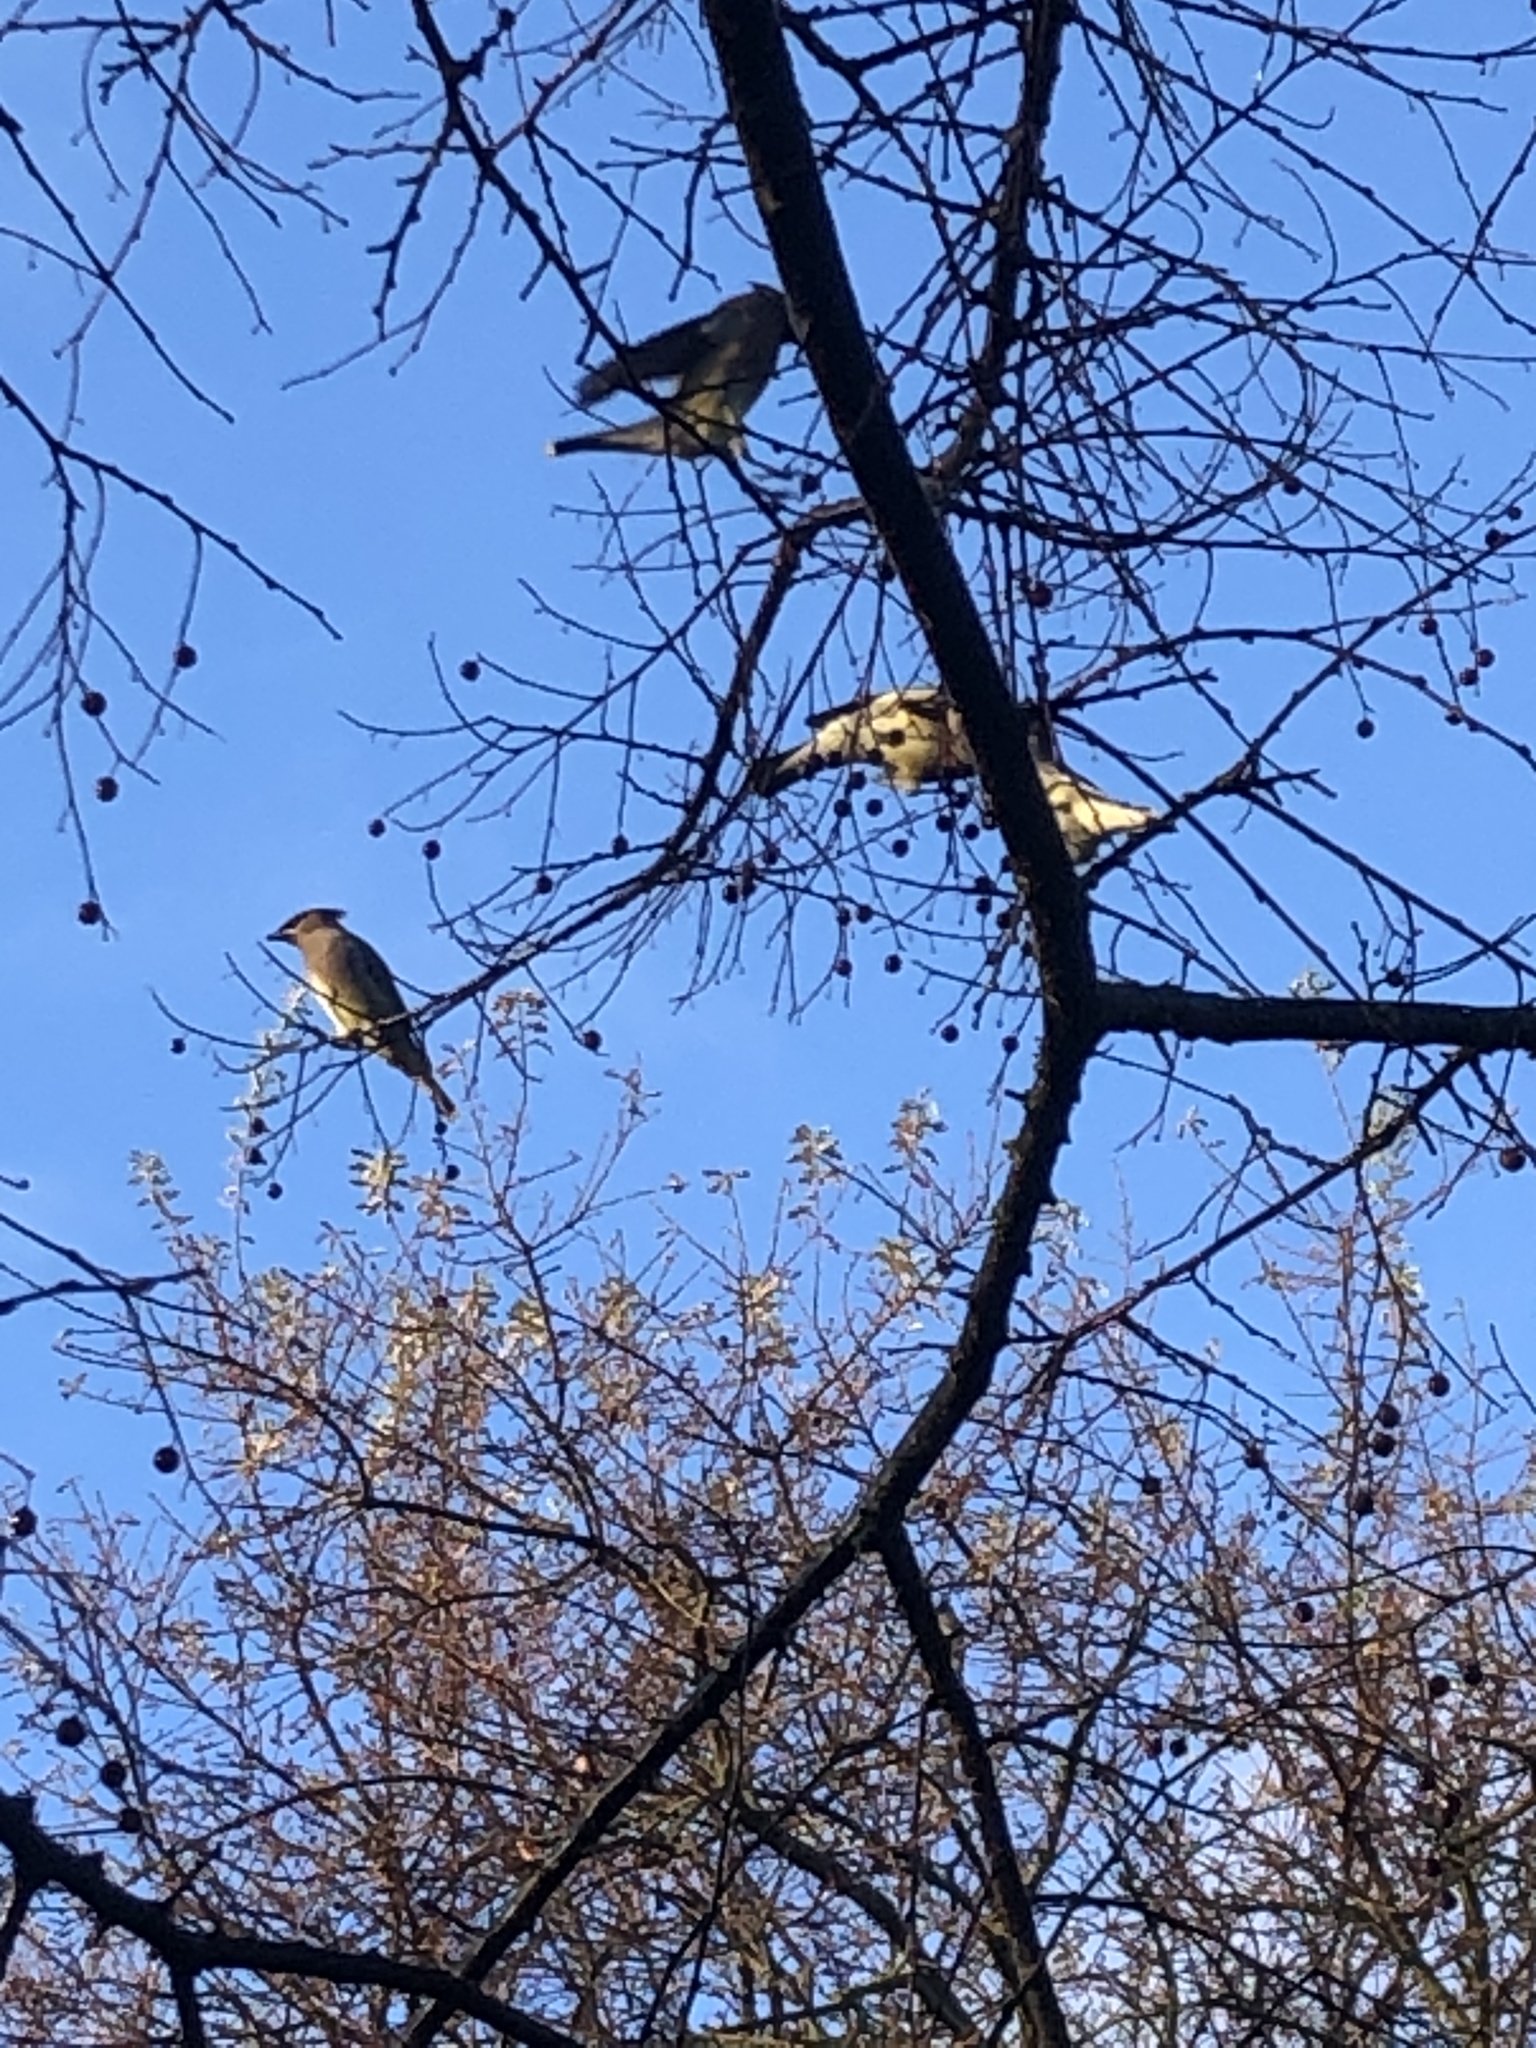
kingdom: Animalia
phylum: Chordata
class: Aves
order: Passeriformes
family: Bombycillidae
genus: Bombycilla
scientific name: Bombycilla cedrorum
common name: Cedar waxwing
